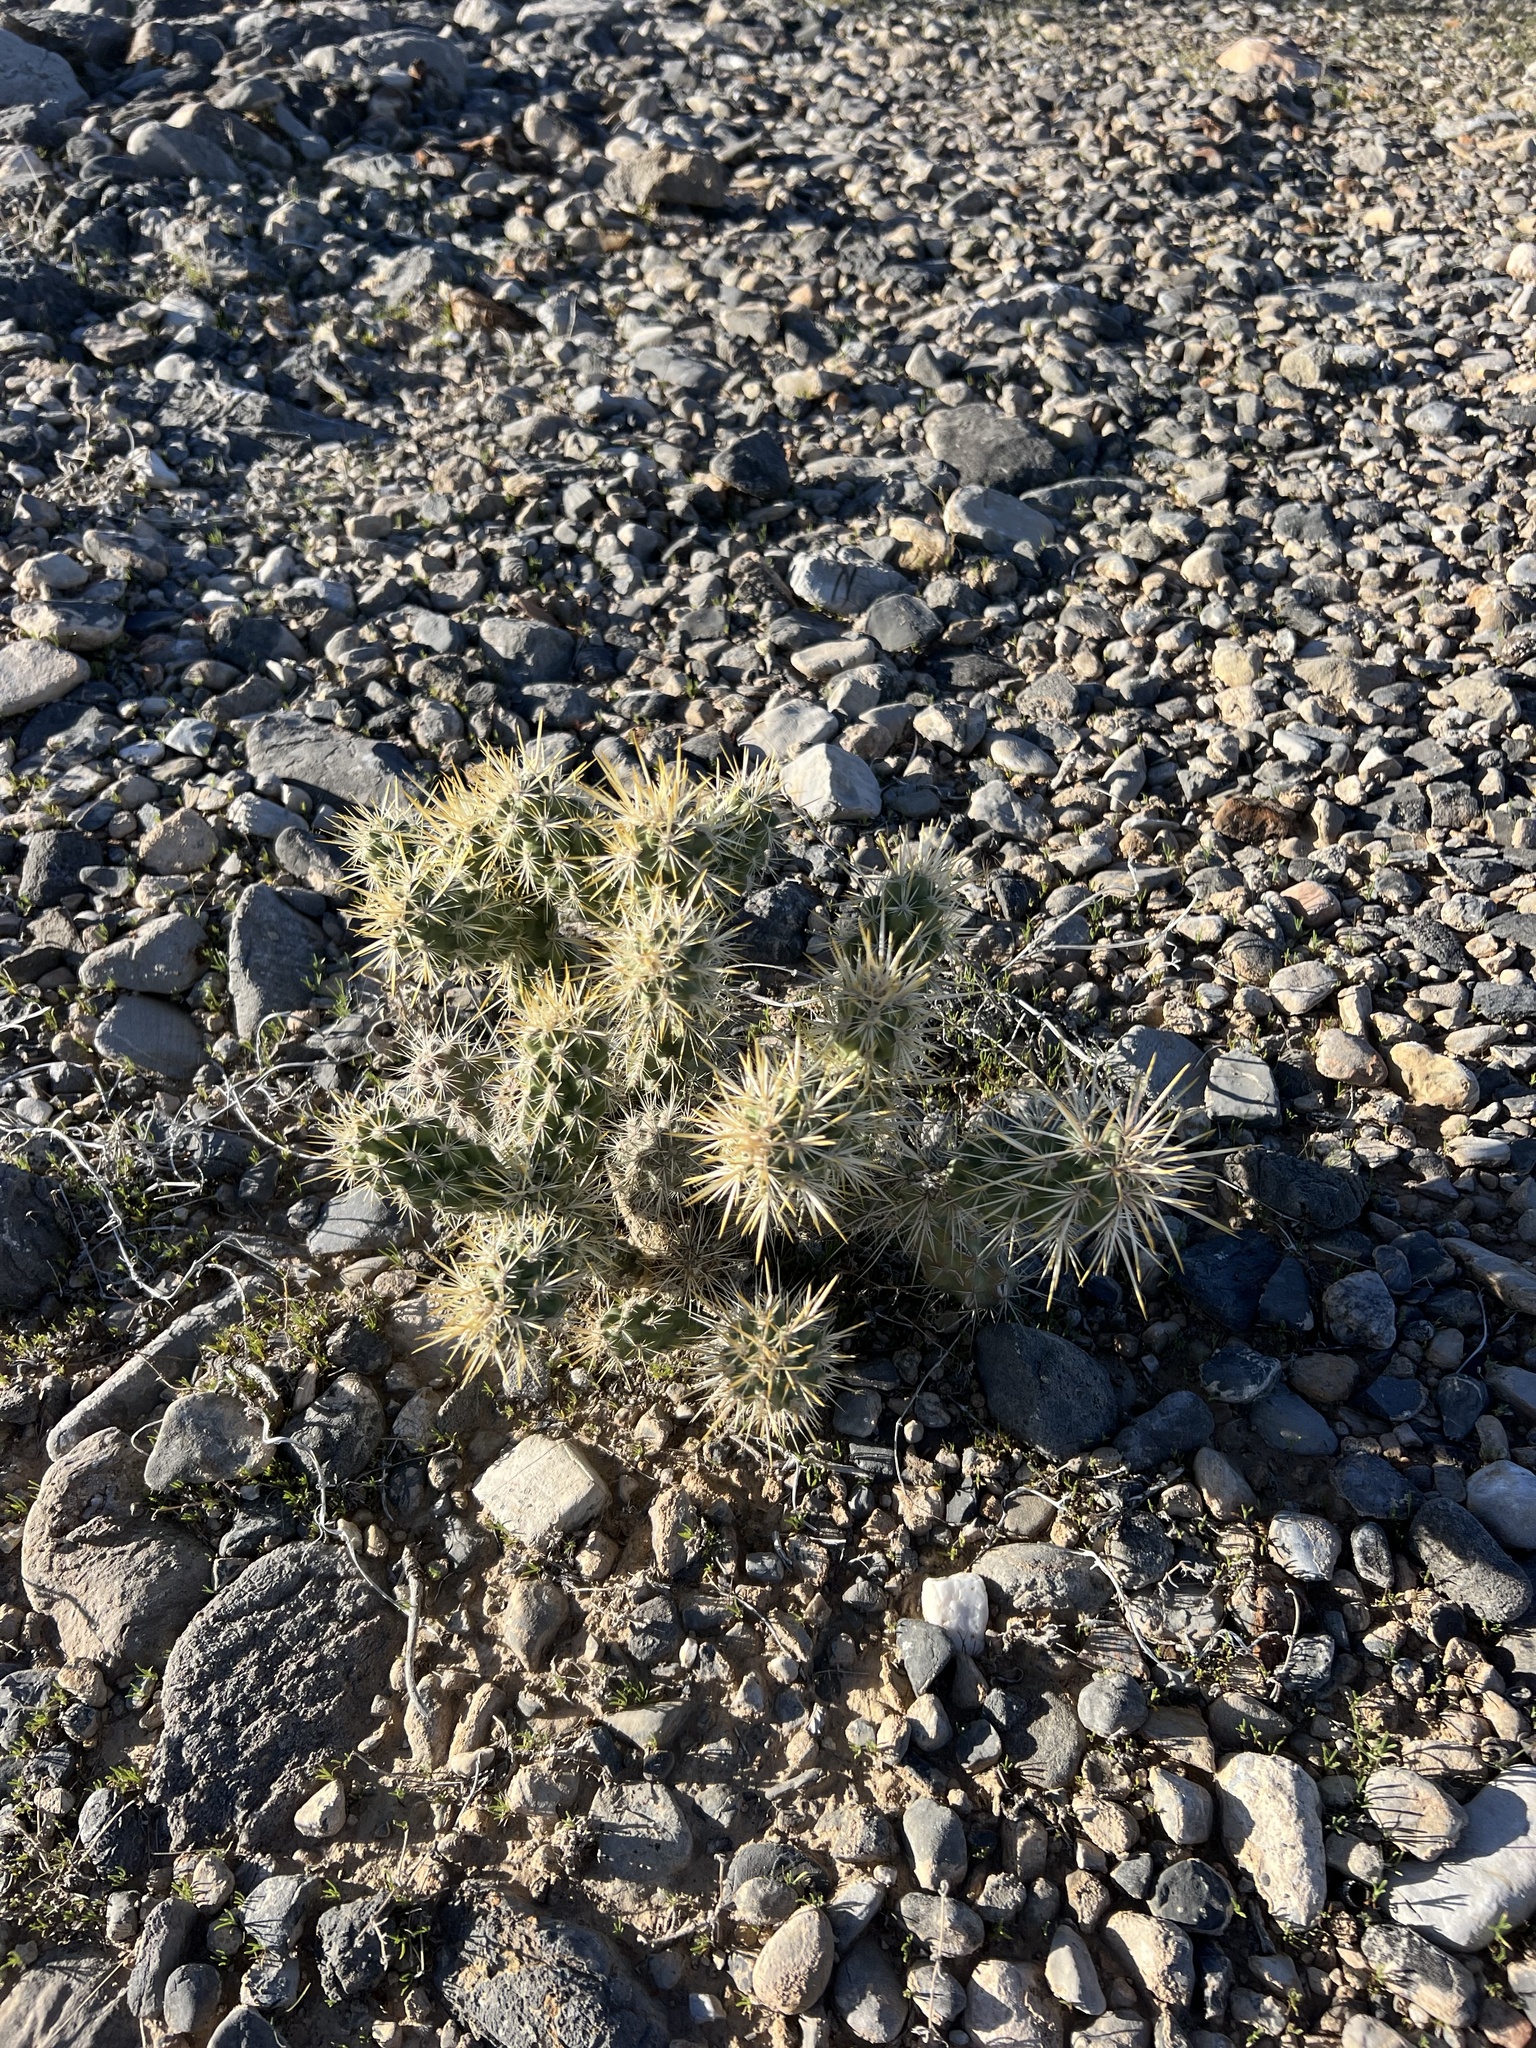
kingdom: Plantae
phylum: Tracheophyta
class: Magnoliopsida
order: Caryophyllales
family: Cactaceae
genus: Cylindropuntia
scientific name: Cylindropuntia echinocarpa
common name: Ground cholla
